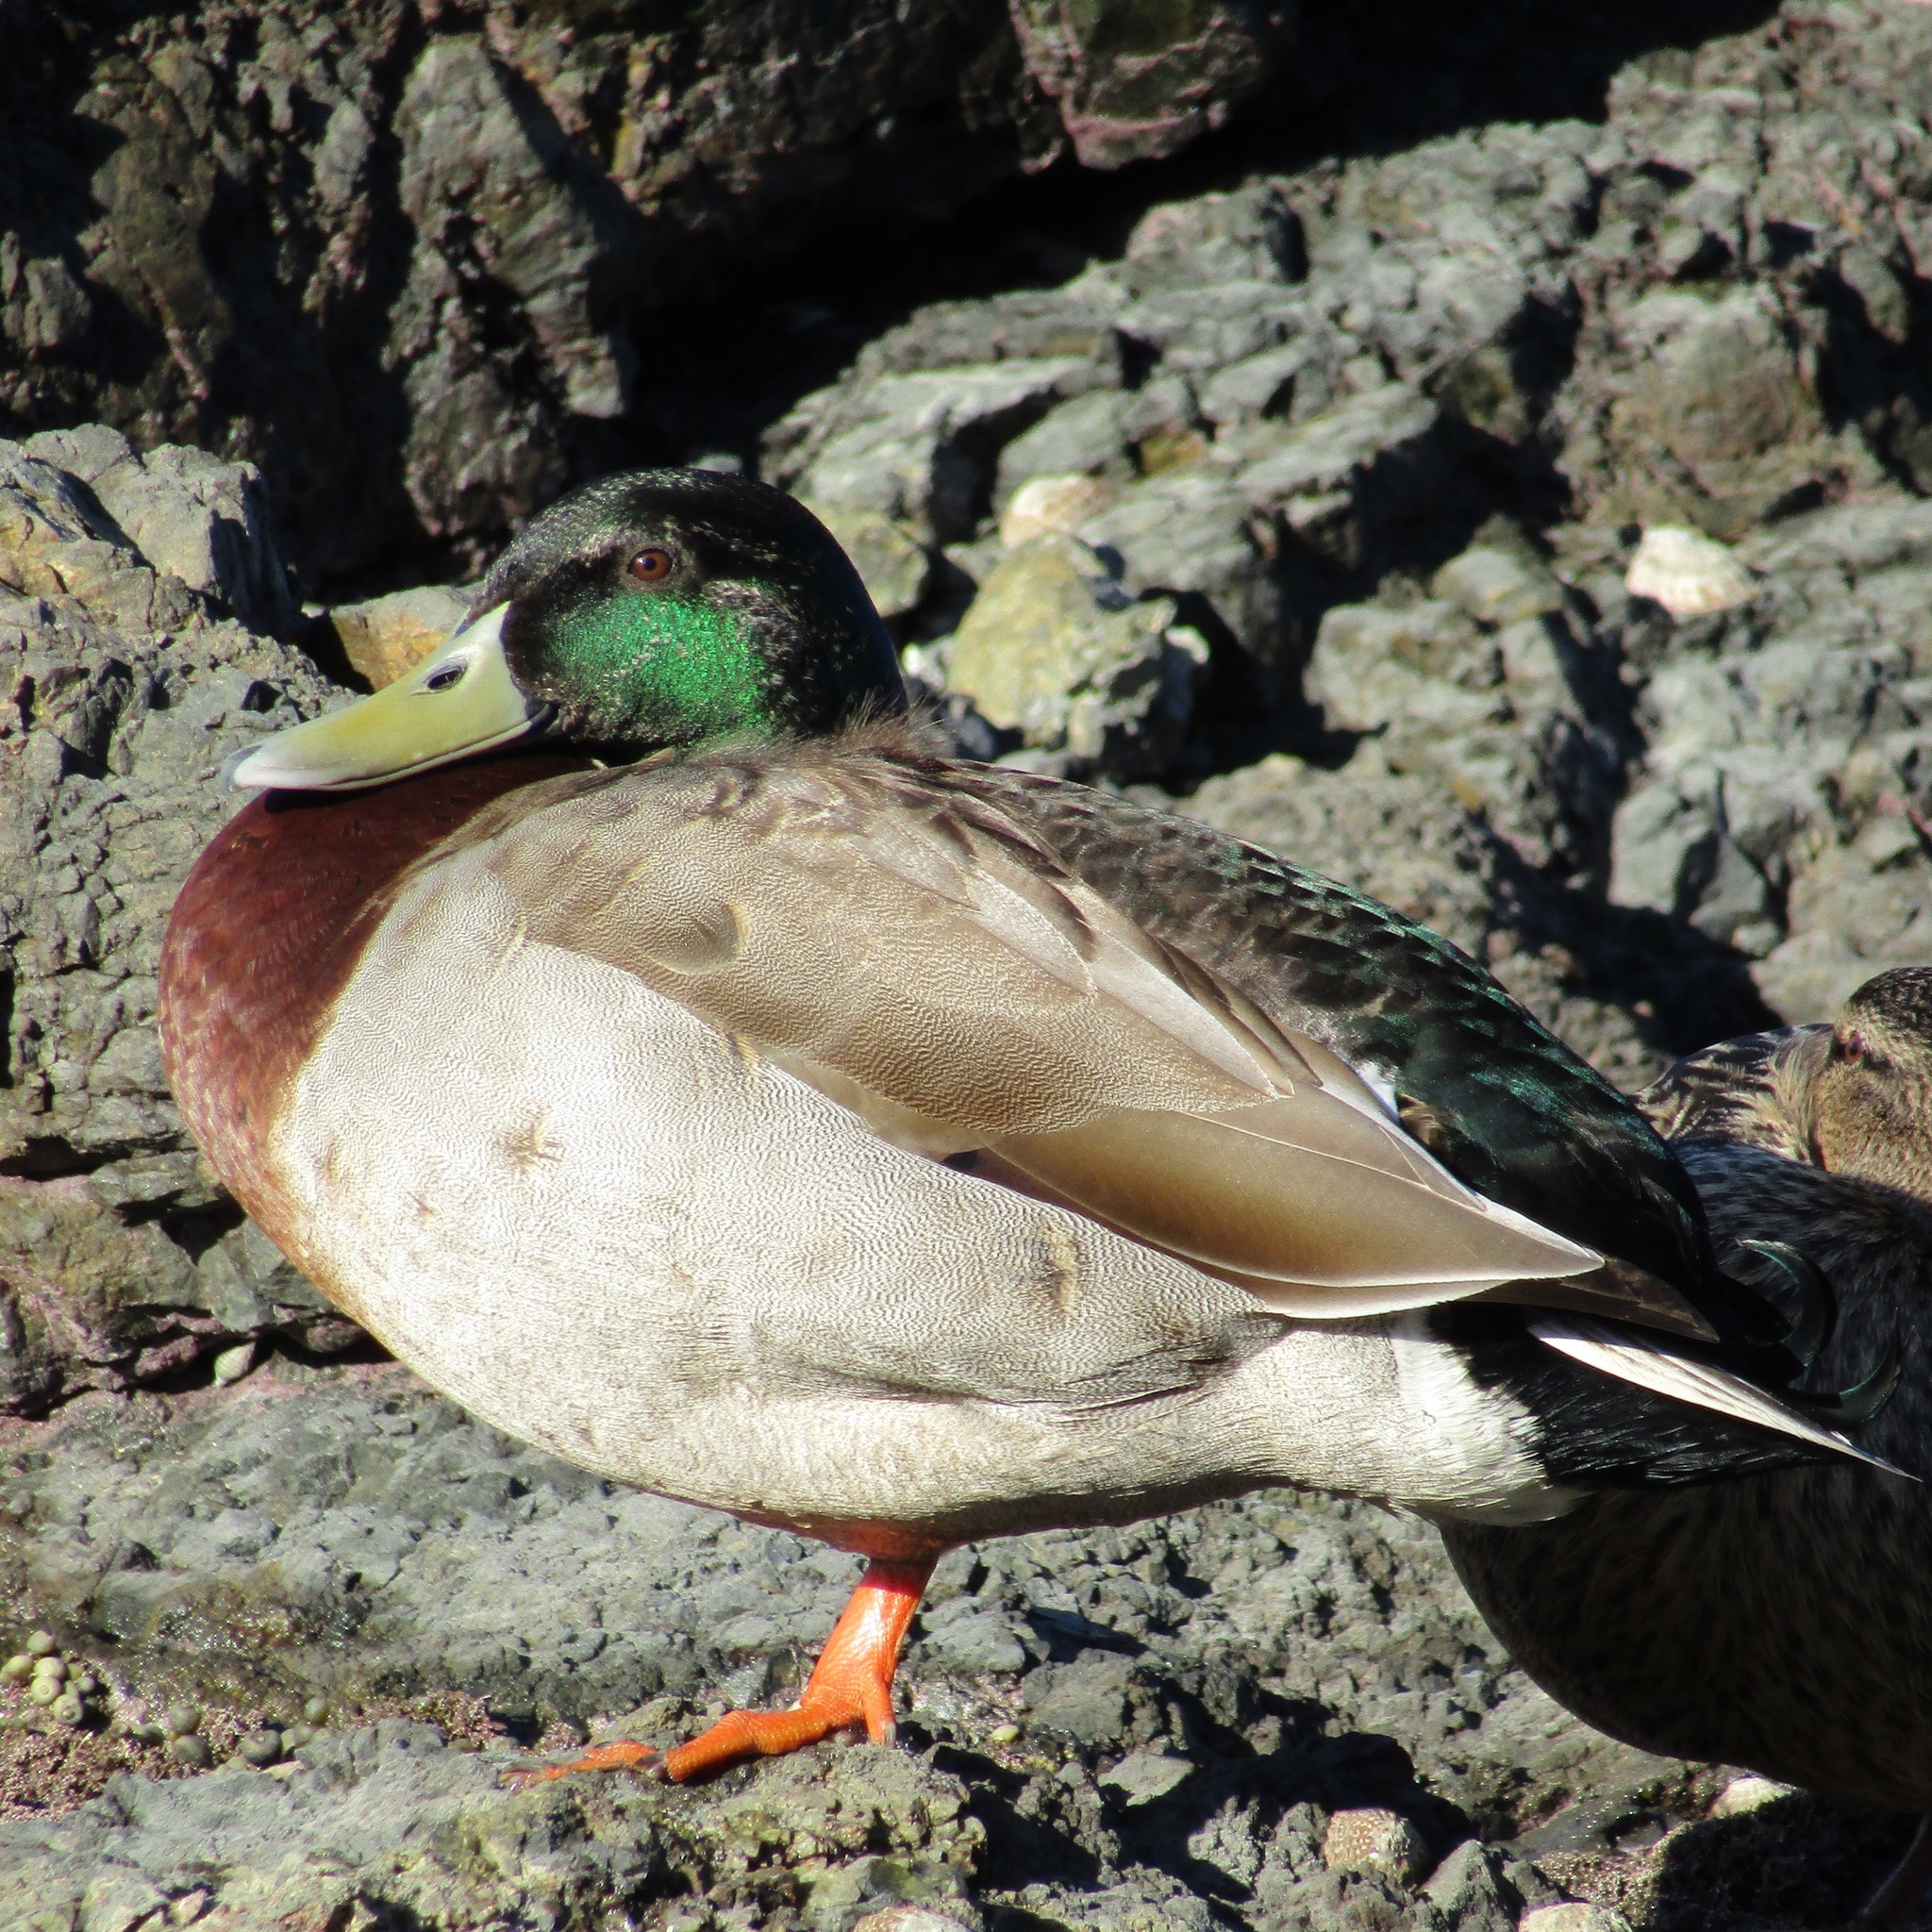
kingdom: Animalia
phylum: Chordata
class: Aves
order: Anseriformes
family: Anatidae
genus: Anas
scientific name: Anas
